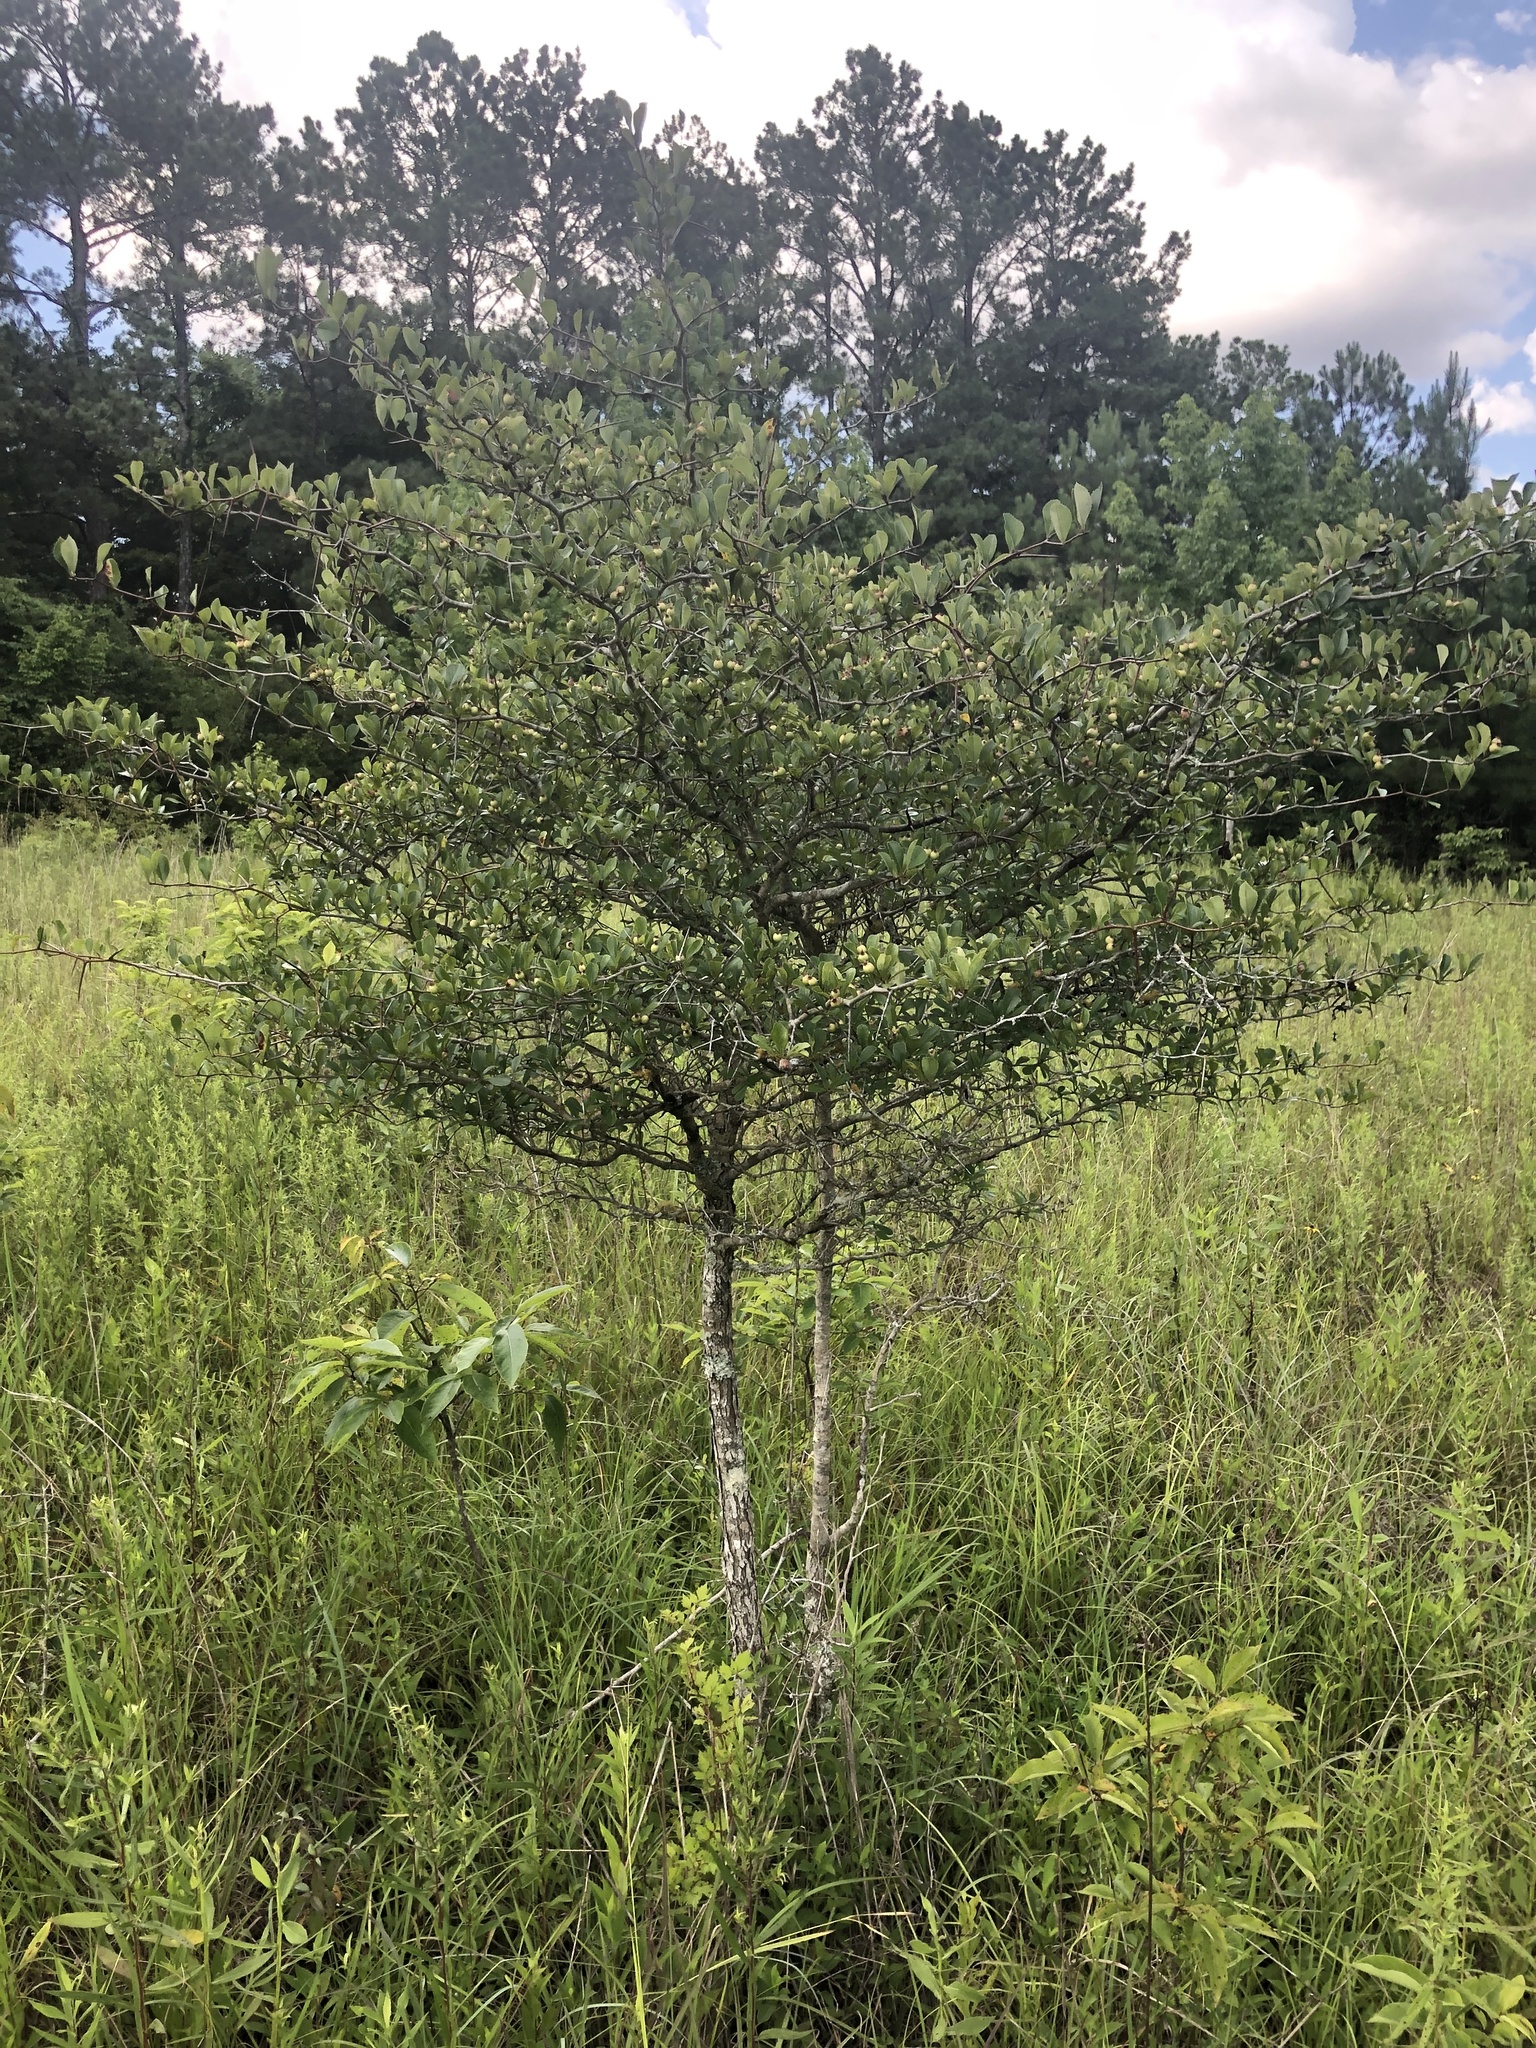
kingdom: Plantae
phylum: Tracheophyta
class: Magnoliopsida
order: Rosales
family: Rosaceae
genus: Crataegus
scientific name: Crataegus berberifolia
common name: Barberry hawthorn
